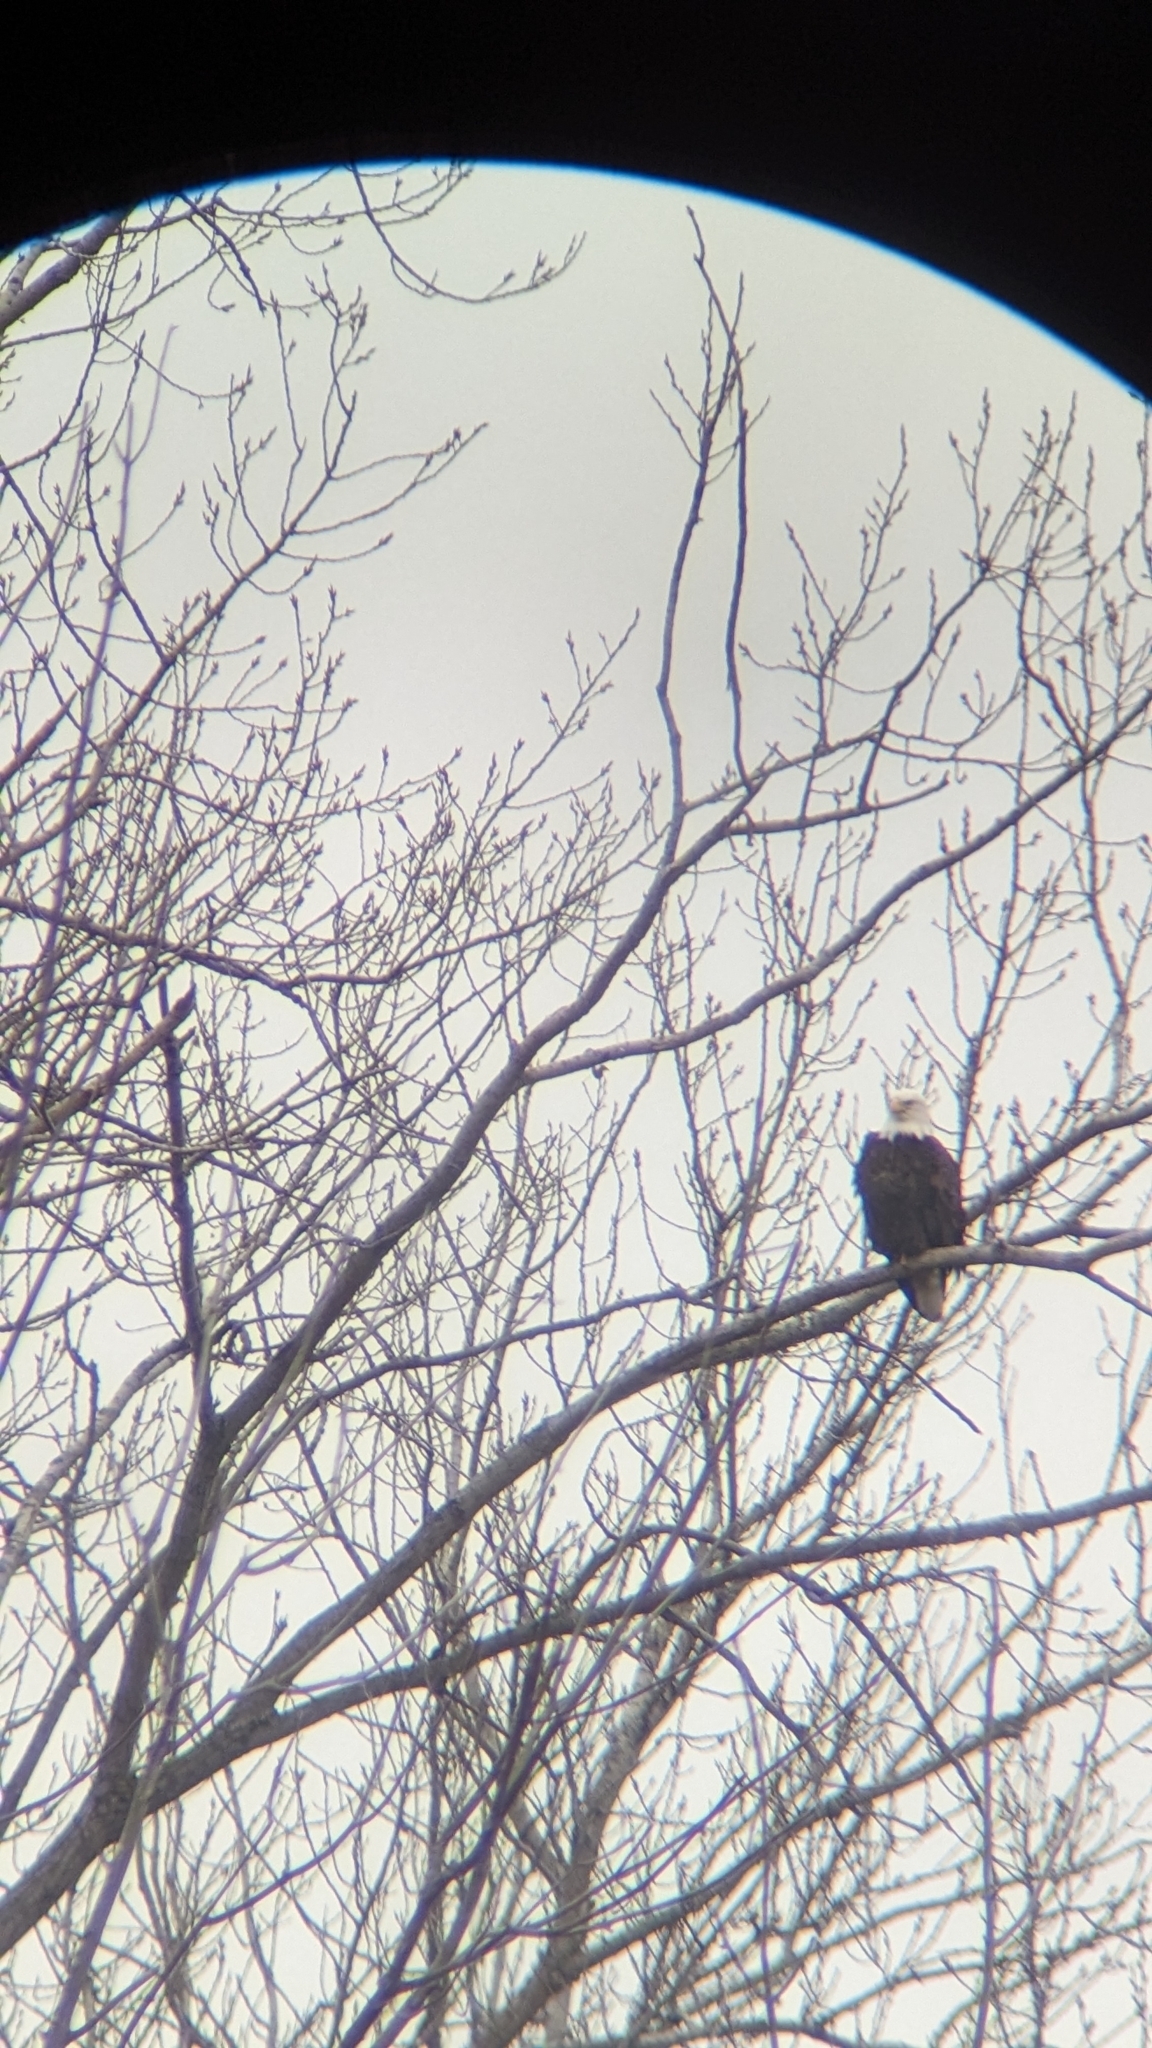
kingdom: Animalia
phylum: Chordata
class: Aves
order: Accipitriformes
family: Accipitridae
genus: Haliaeetus
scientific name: Haliaeetus leucocephalus
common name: Bald eagle
